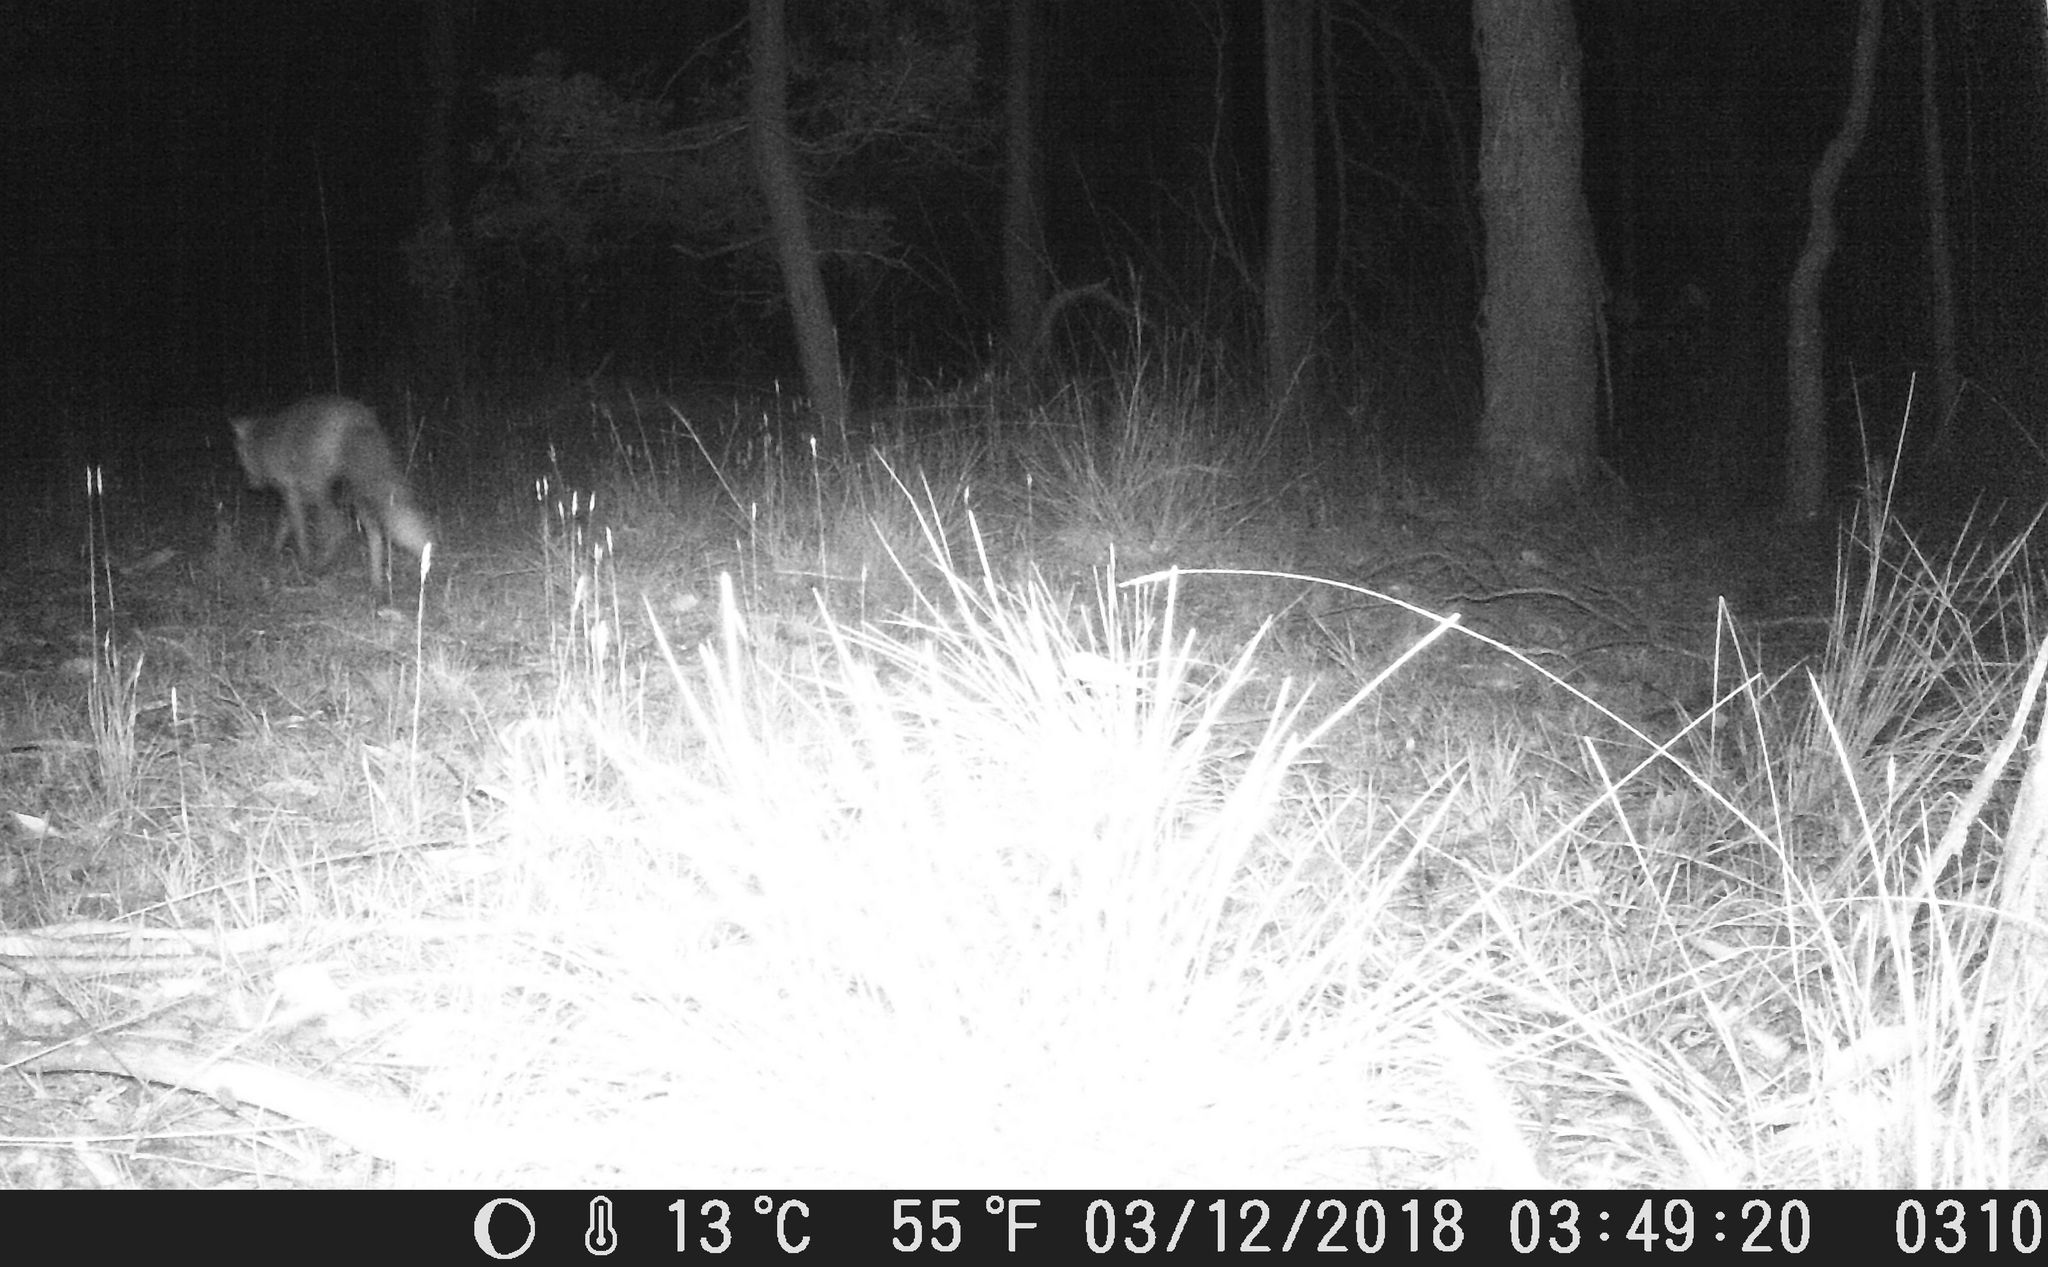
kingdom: Animalia
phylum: Chordata
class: Mammalia
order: Carnivora
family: Canidae
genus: Vulpes
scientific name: Vulpes vulpes
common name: Red fox
